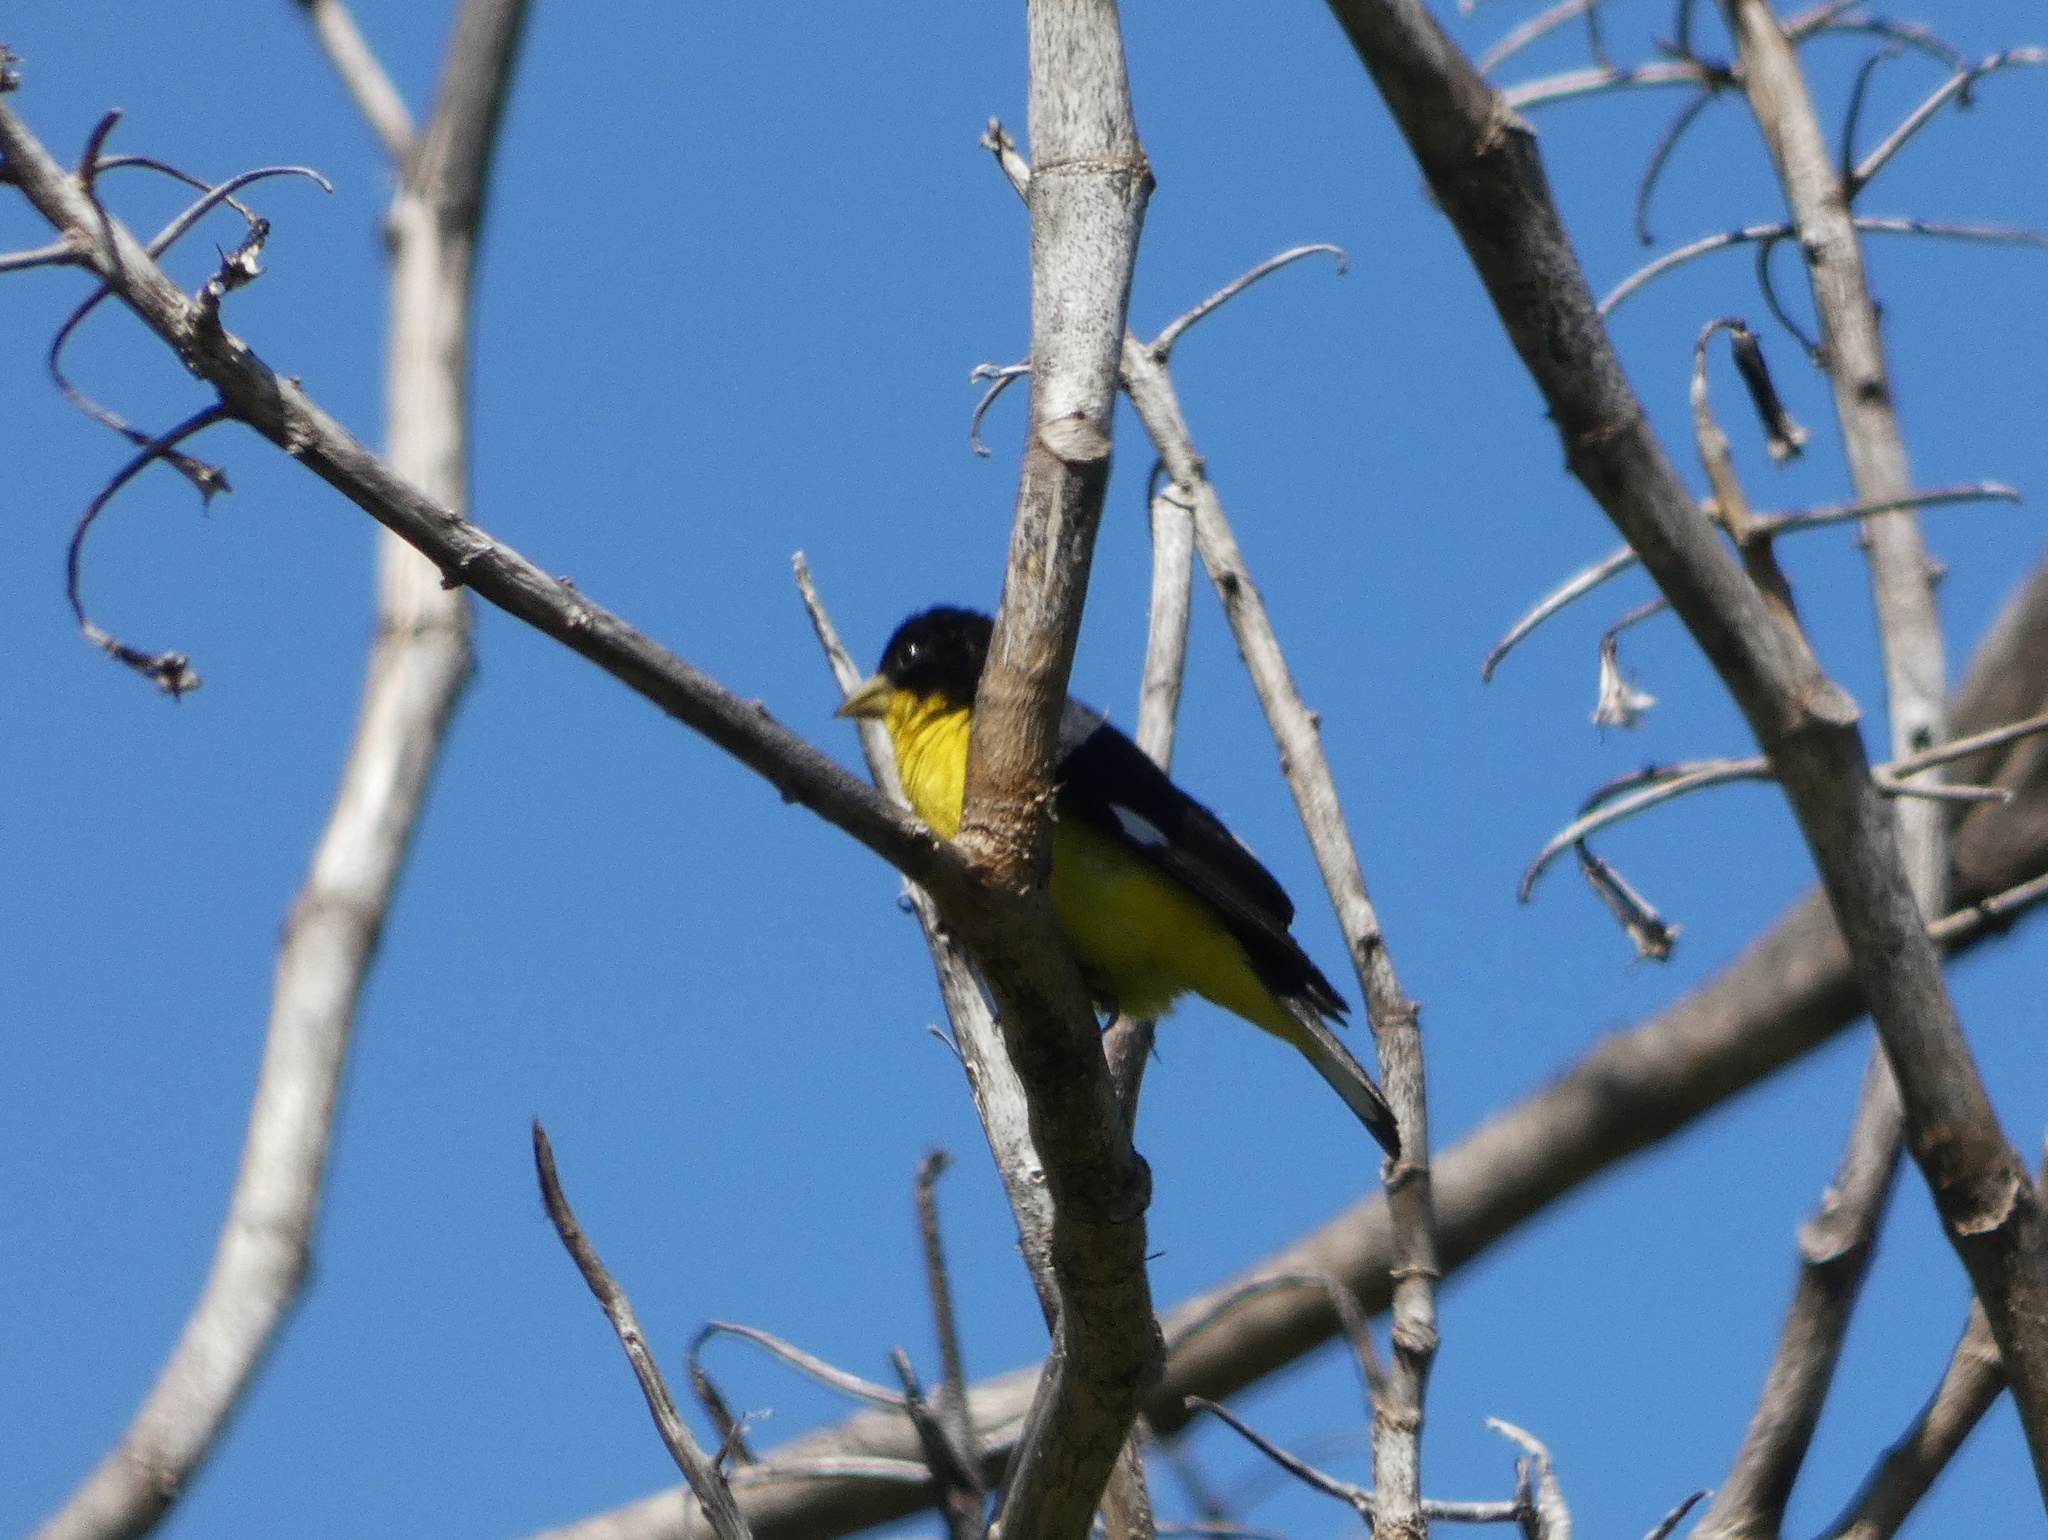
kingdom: Animalia
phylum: Chordata
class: Aves
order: Passeriformes
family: Fringillidae
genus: Spinus
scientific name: Spinus psaltria
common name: Lesser goldfinch
